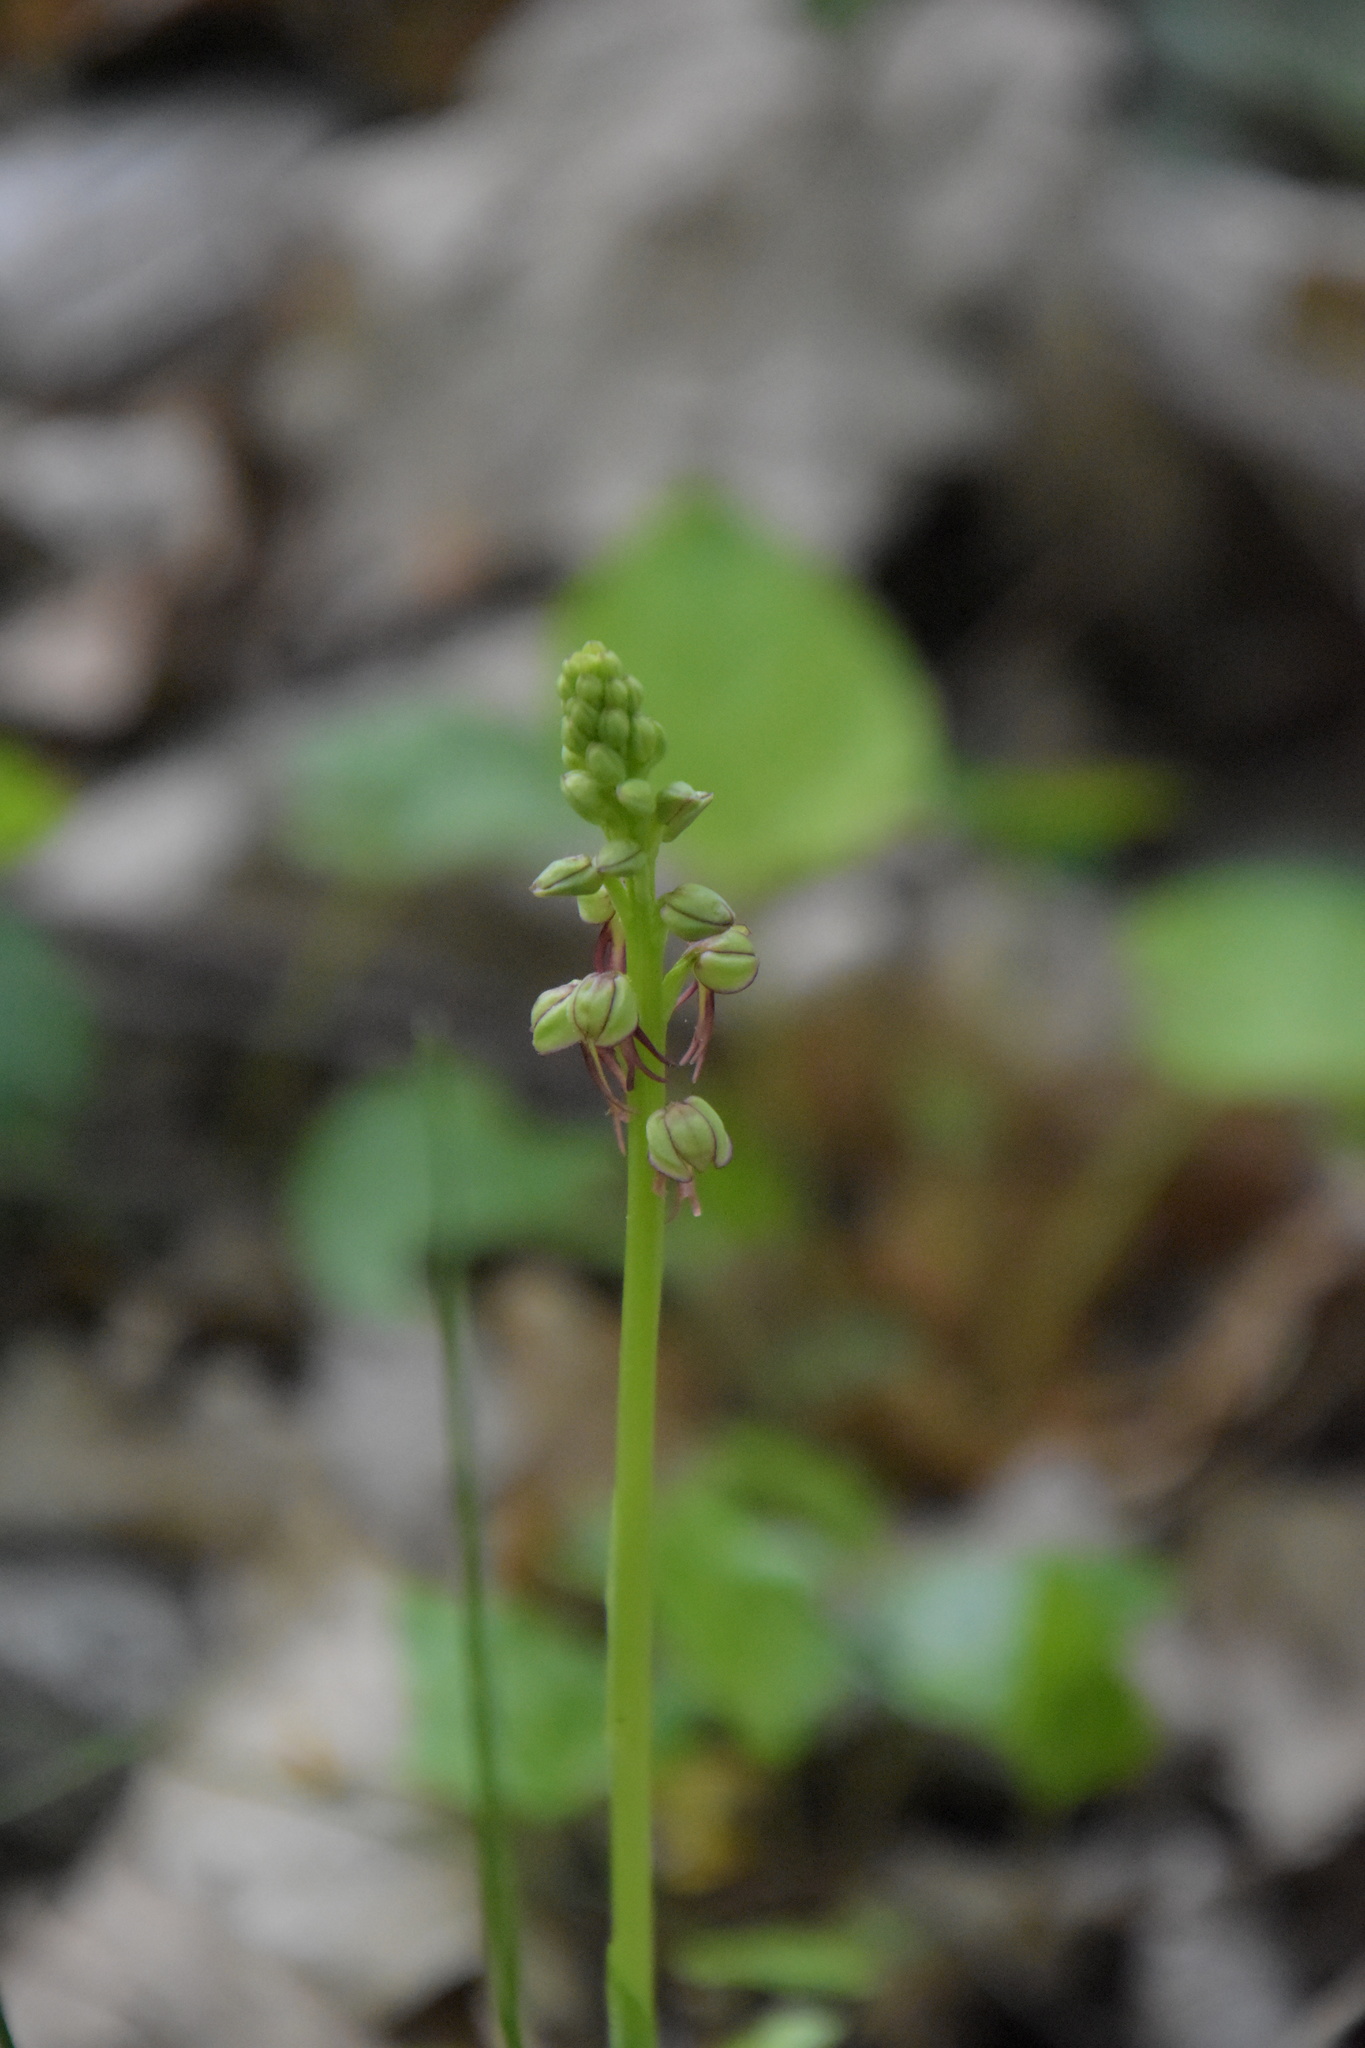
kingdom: Plantae
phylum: Tracheophyta
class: Liliopsida
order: Asparagales
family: Orchidaceae
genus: Orchis
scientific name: Orchis anthropophora
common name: Man orchid
